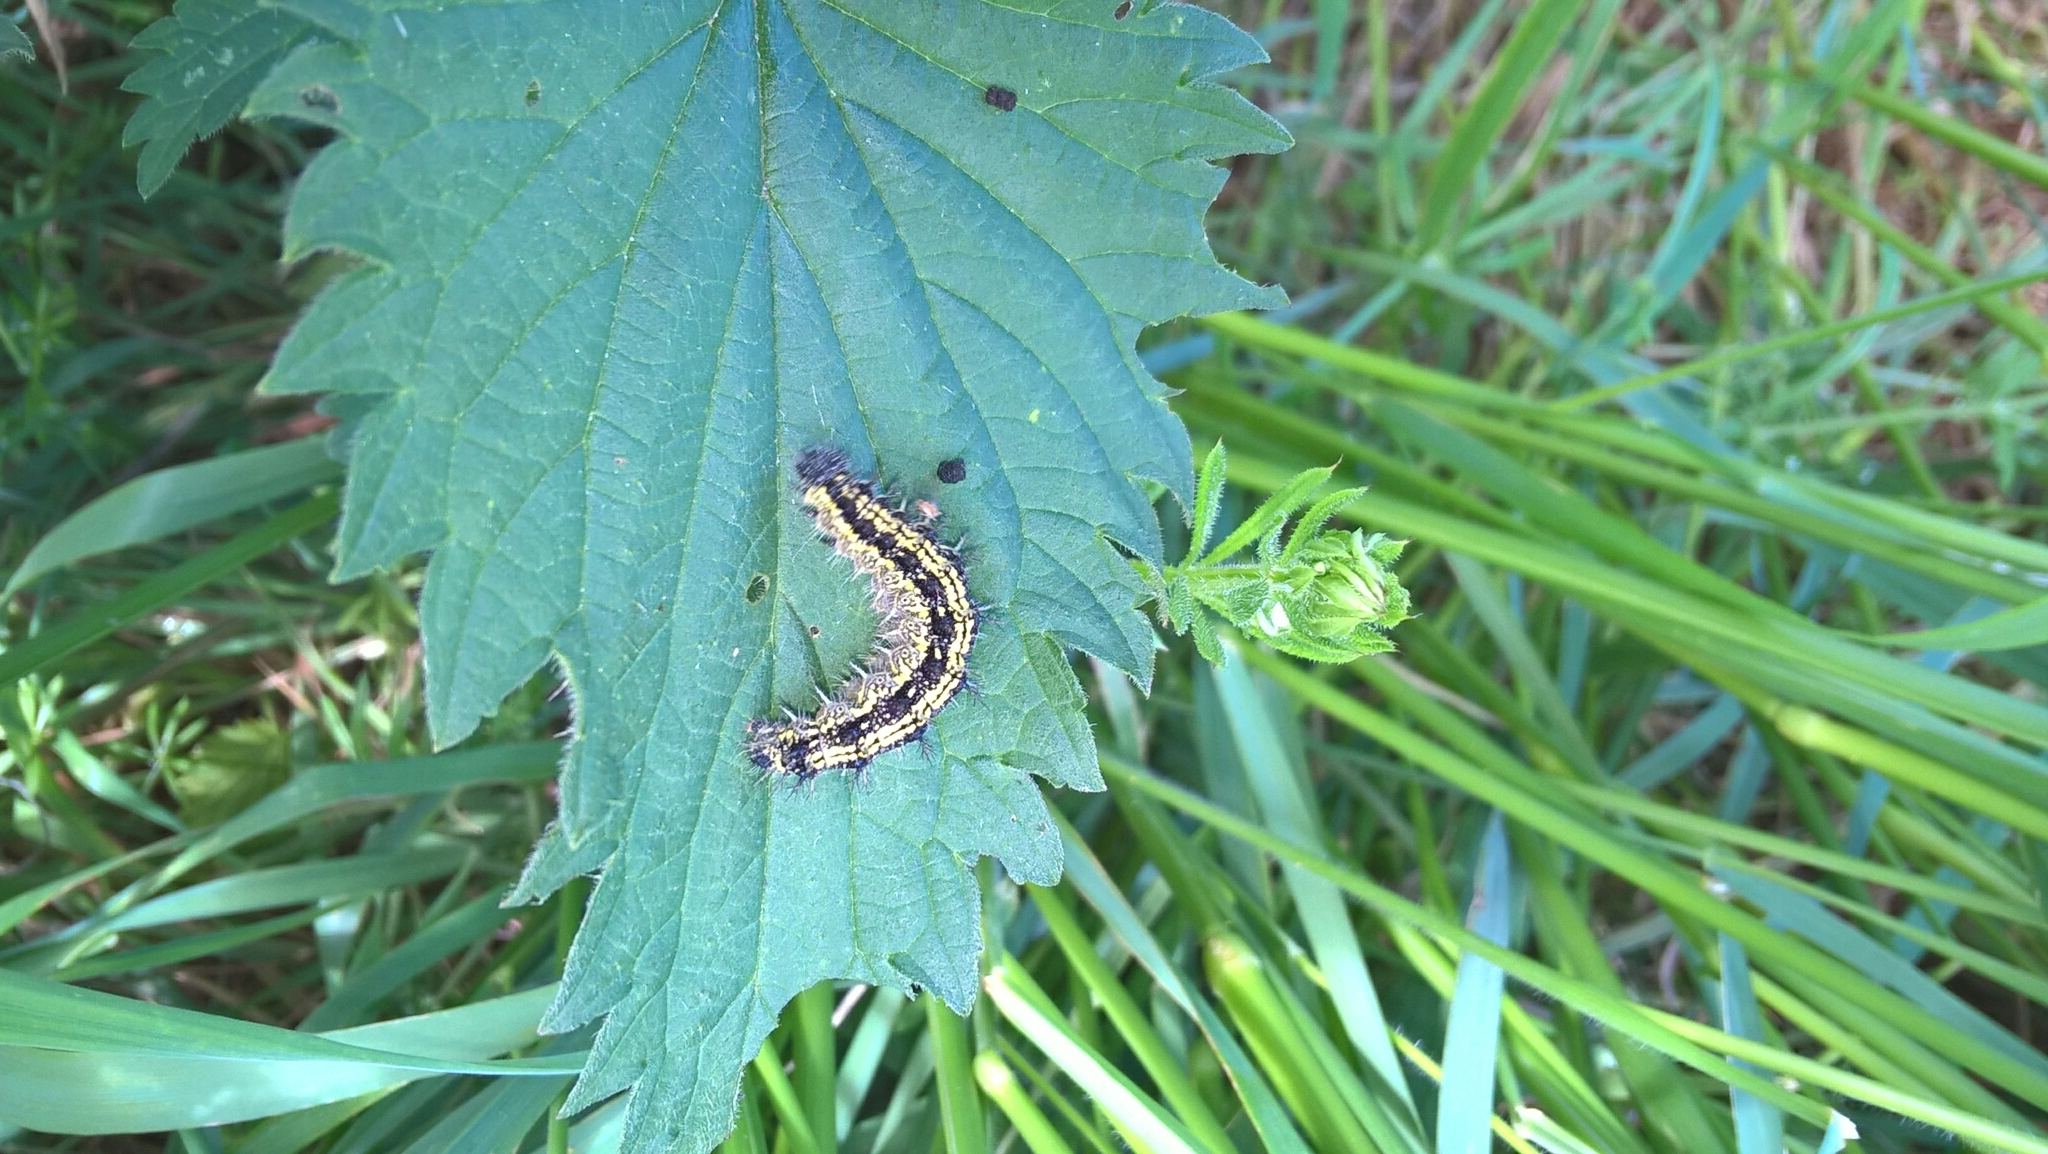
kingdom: Animalia
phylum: Arthropoda
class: Insecta
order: Lepidoptera
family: Nymphalidae
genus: Aglais
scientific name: Aglais urticae
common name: Small tortoiseshell
